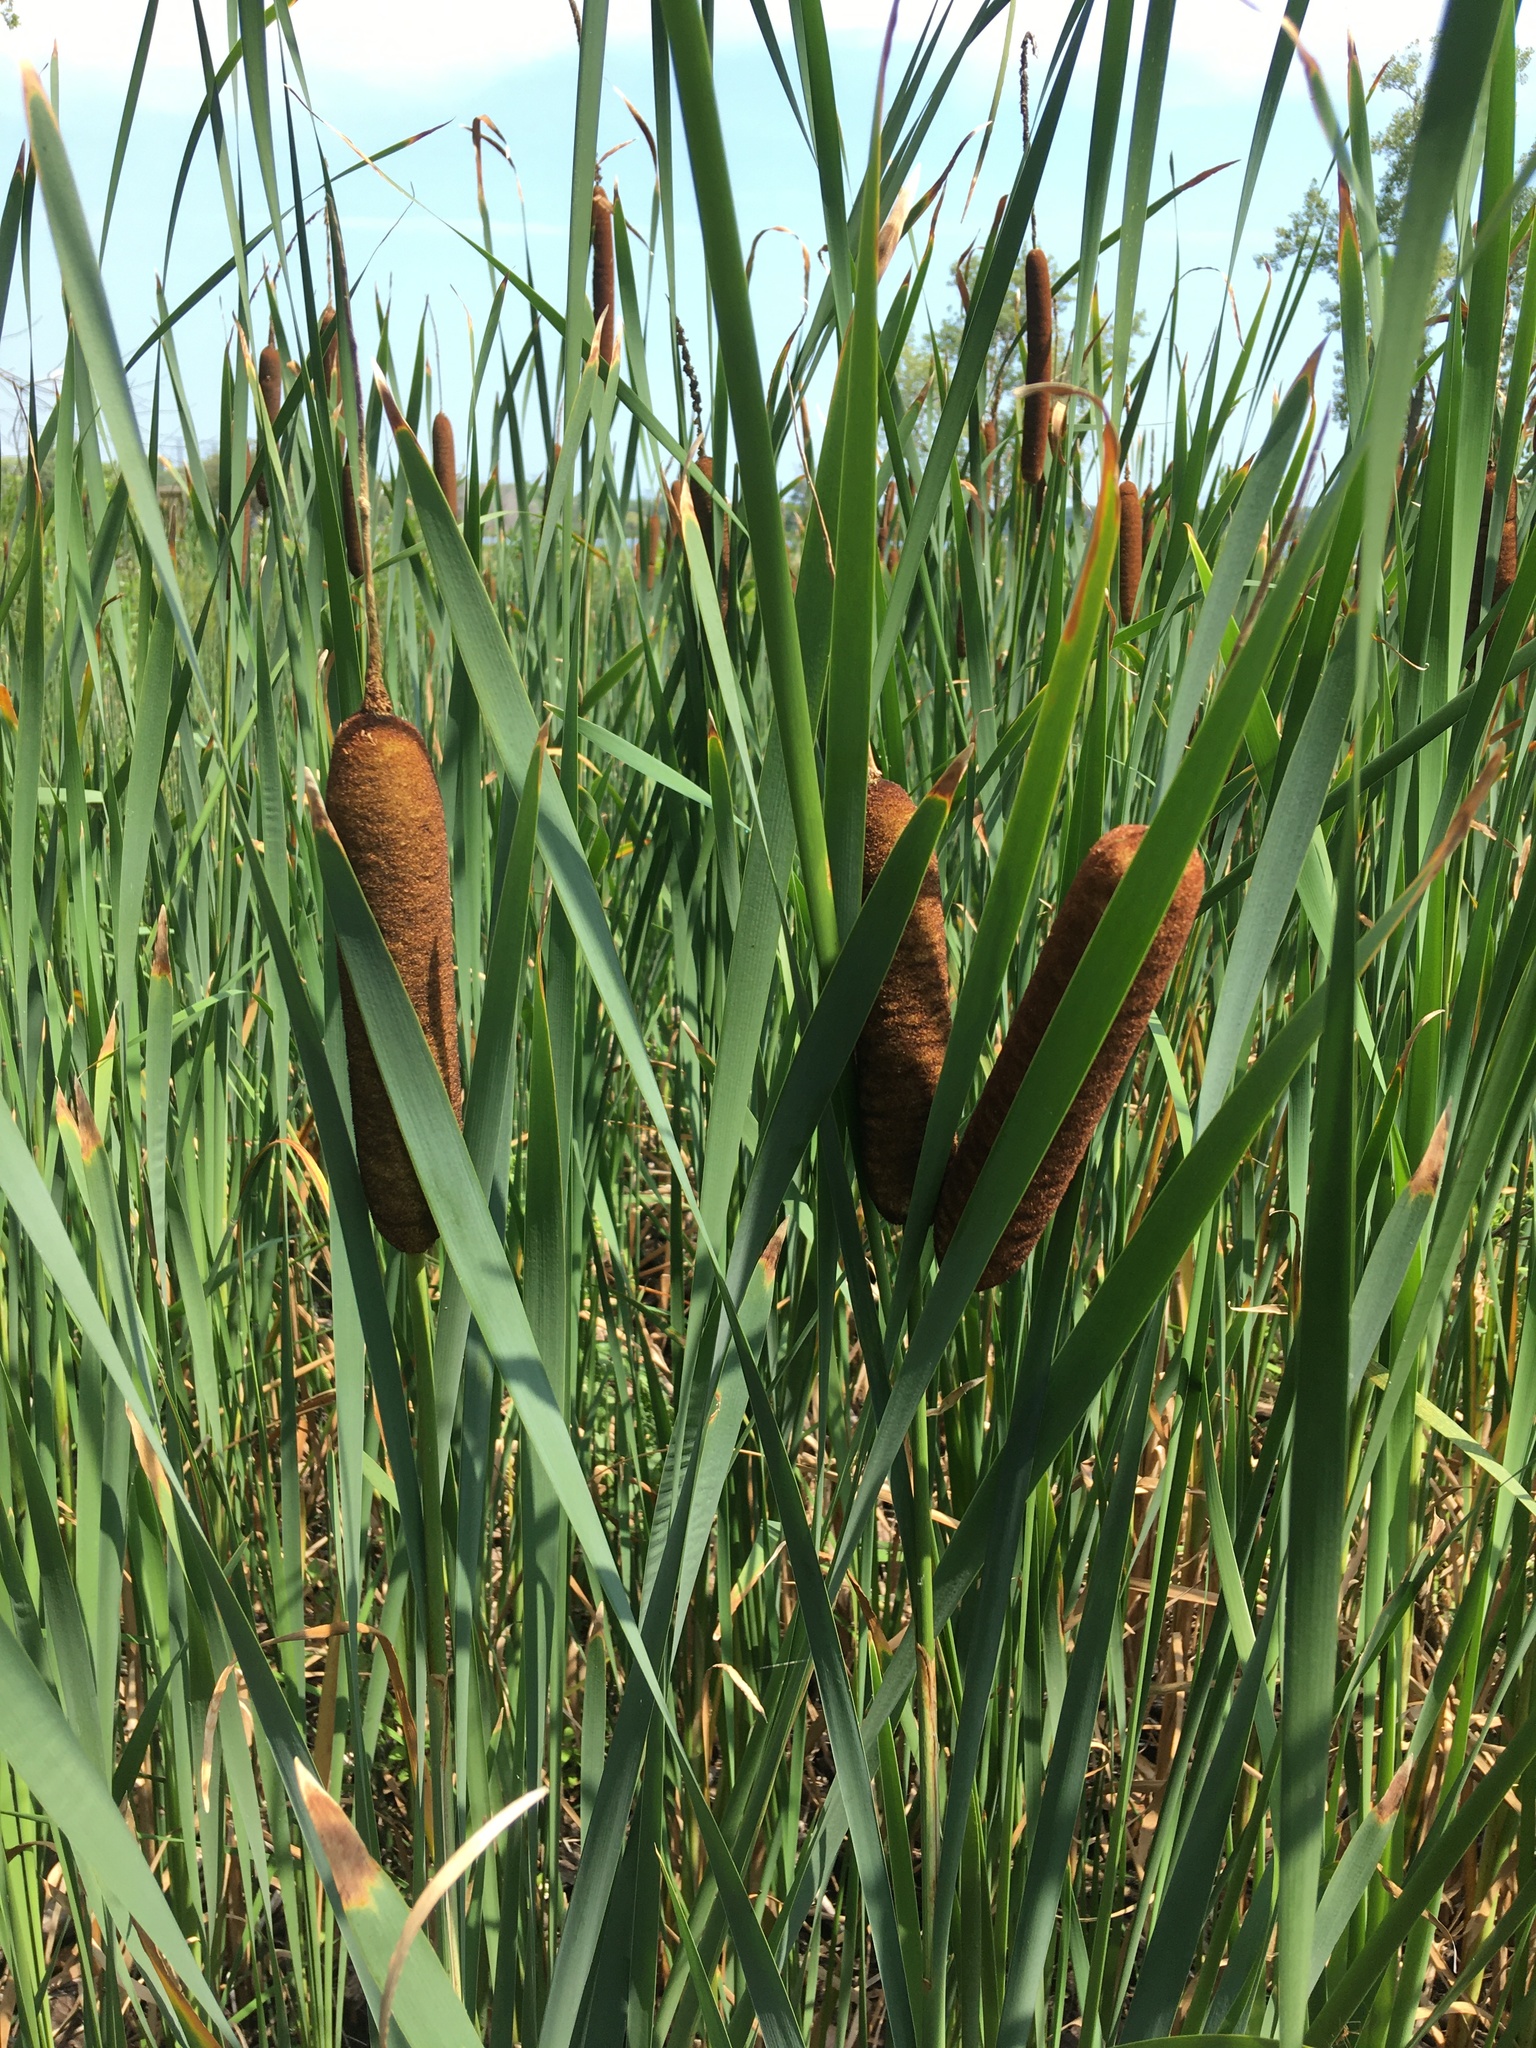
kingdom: Plantae
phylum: Tracheophyta
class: Liliopsida
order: Poales
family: Typhaceae
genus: Typha
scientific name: Typha latifolia
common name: Broadleaf cattail
